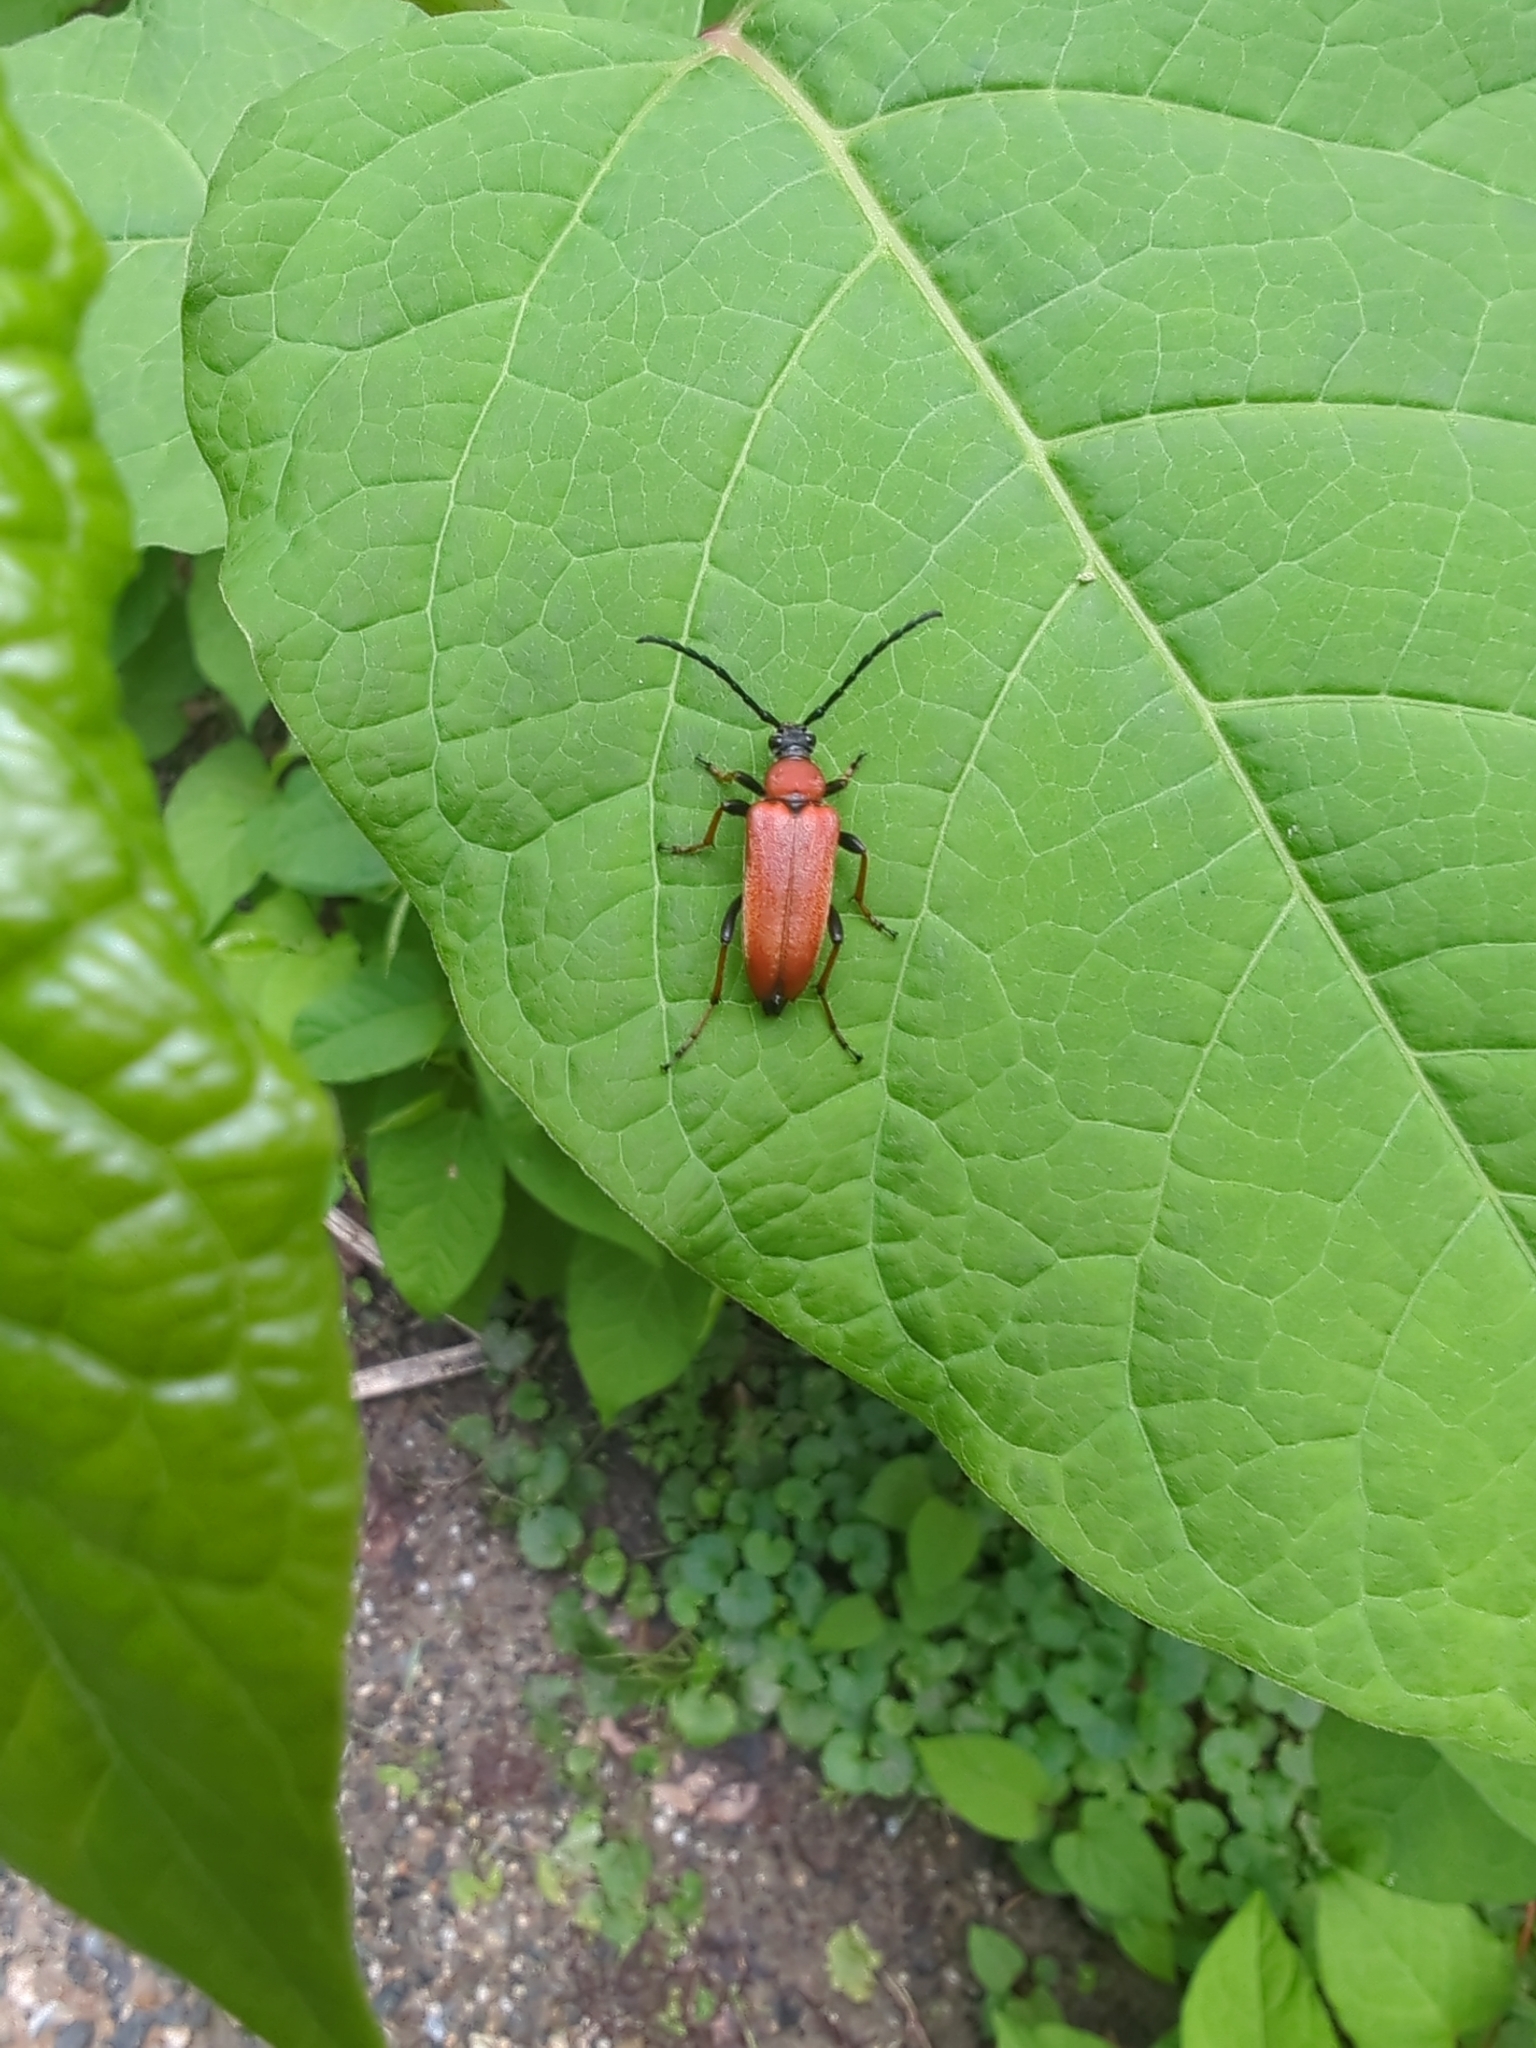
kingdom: Animalia
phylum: Arthropoda
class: Insecta
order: Coleoptera
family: Cerambycidae
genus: Stictoleptura
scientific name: Stictoleptura rubra
